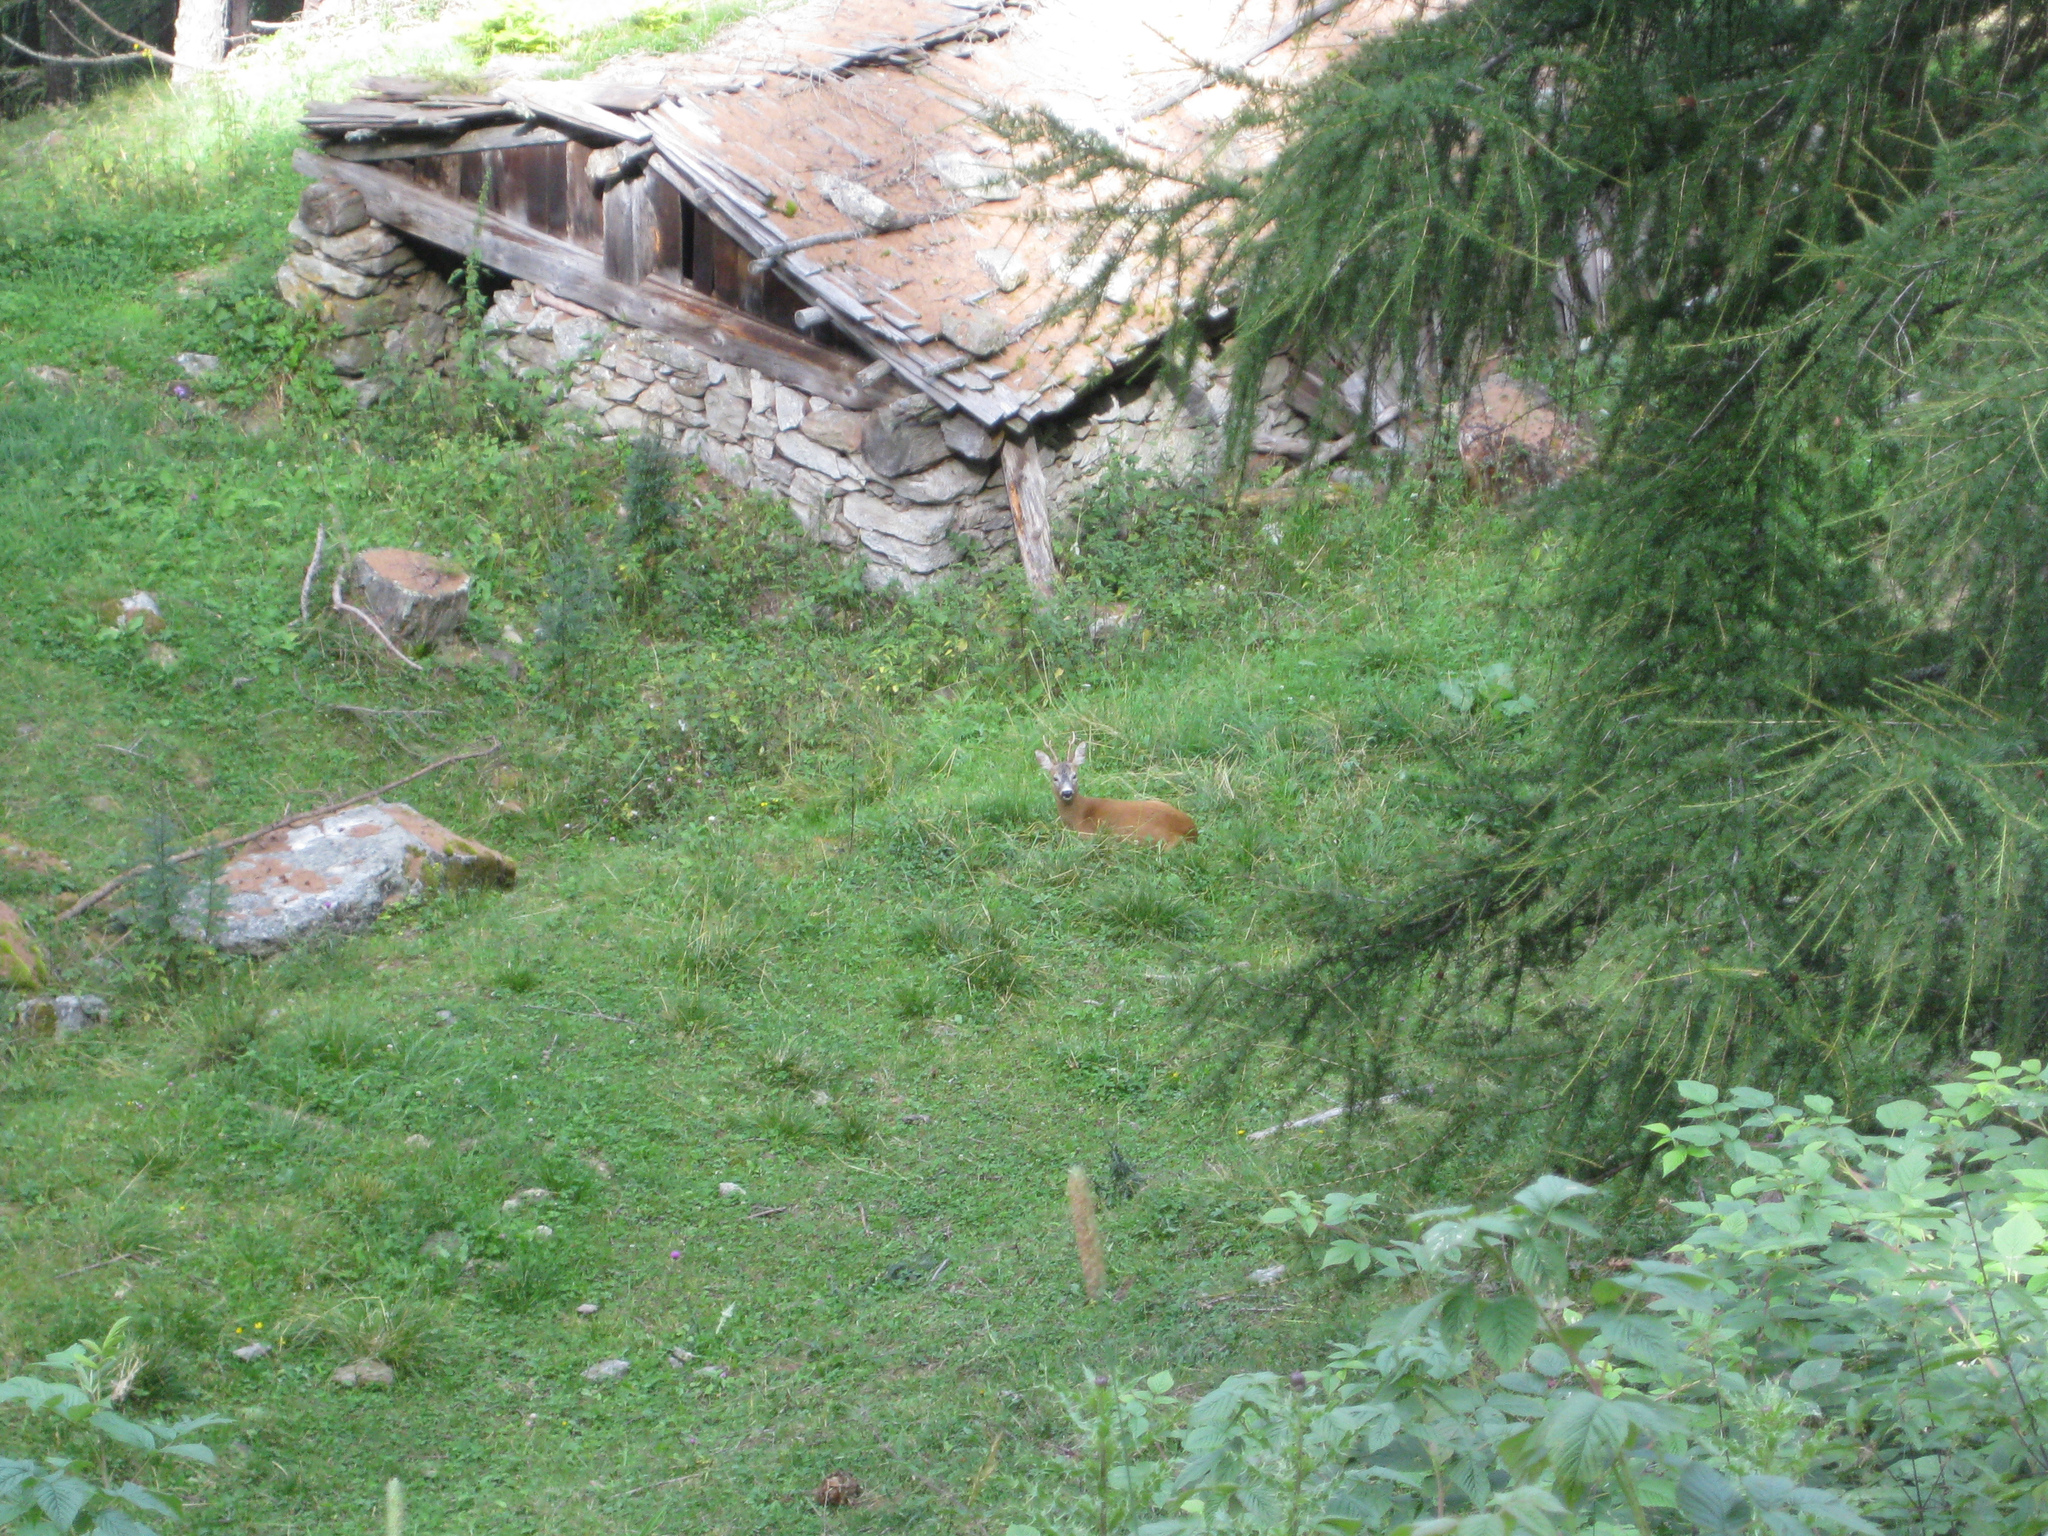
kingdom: Animalia
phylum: Chordata
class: Mammalia
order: Artiodactyla
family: Cervidae
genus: Capreolus
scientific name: Capreolus capreolus
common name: Western roe deer
